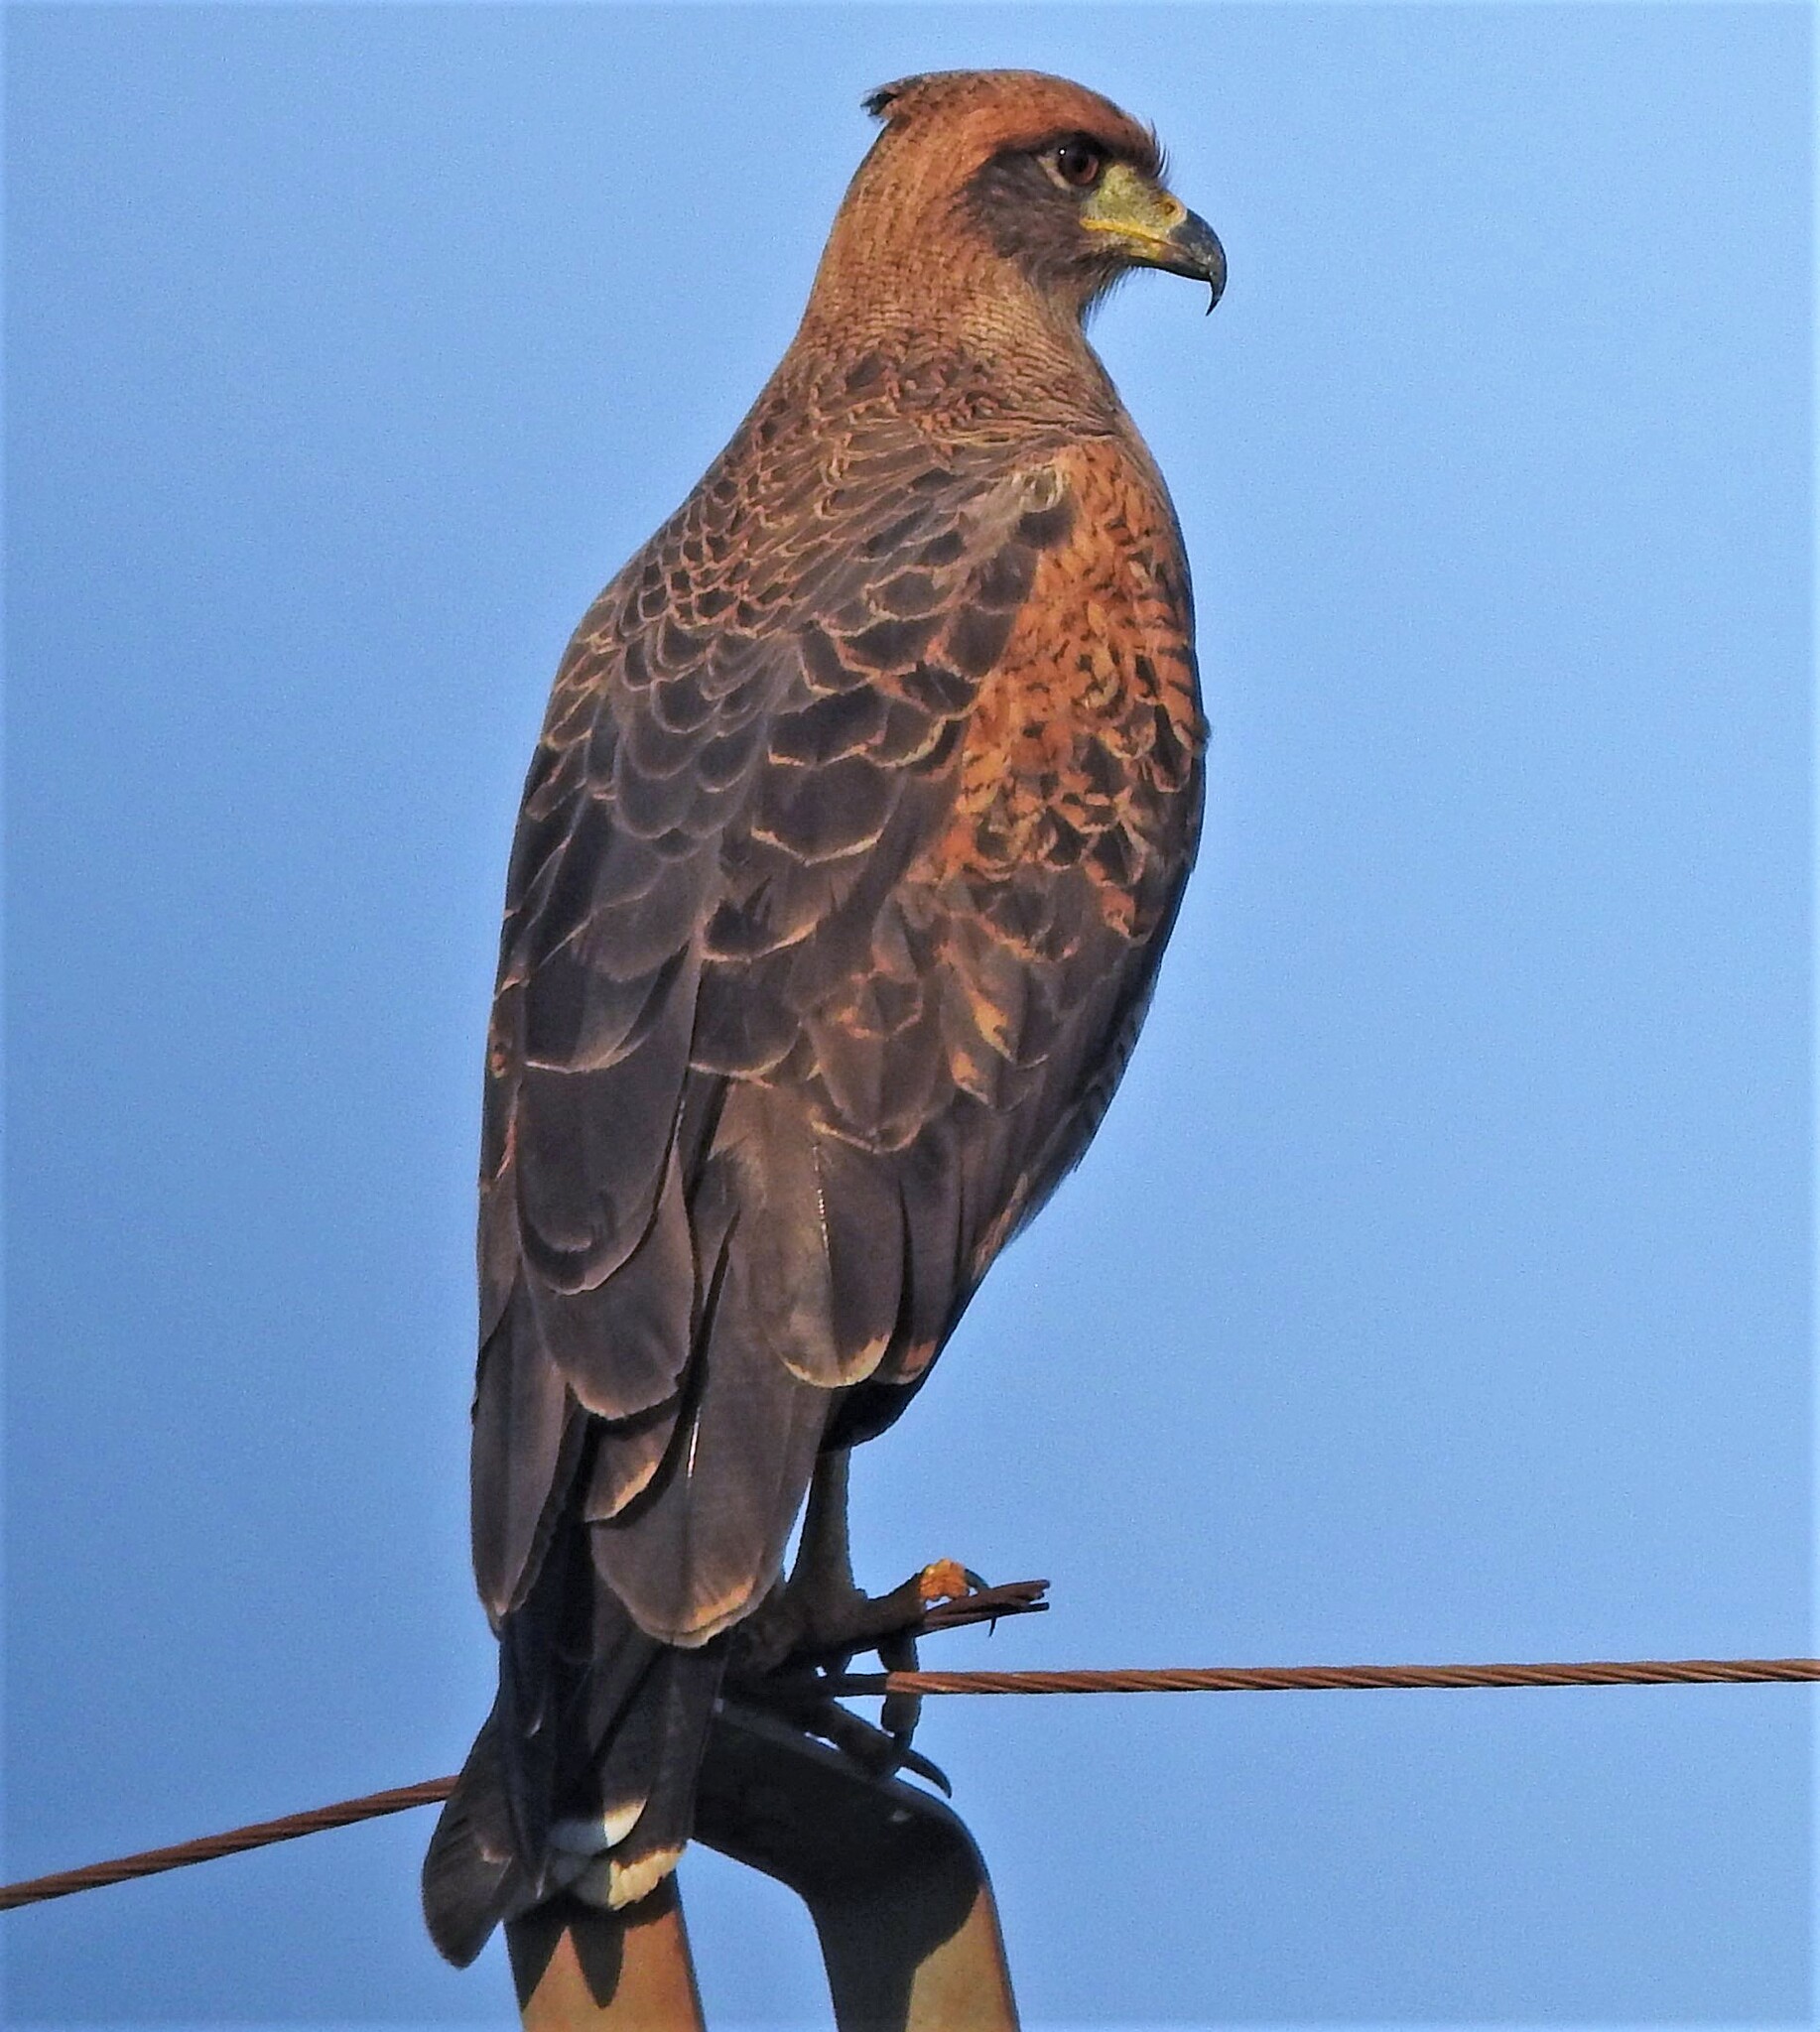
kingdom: Animalia
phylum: Chordata
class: Aves
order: Accipitriformes
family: Accipitridae
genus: Buteogallus
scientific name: Buteogallus meridionalis
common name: Savanna hawk
